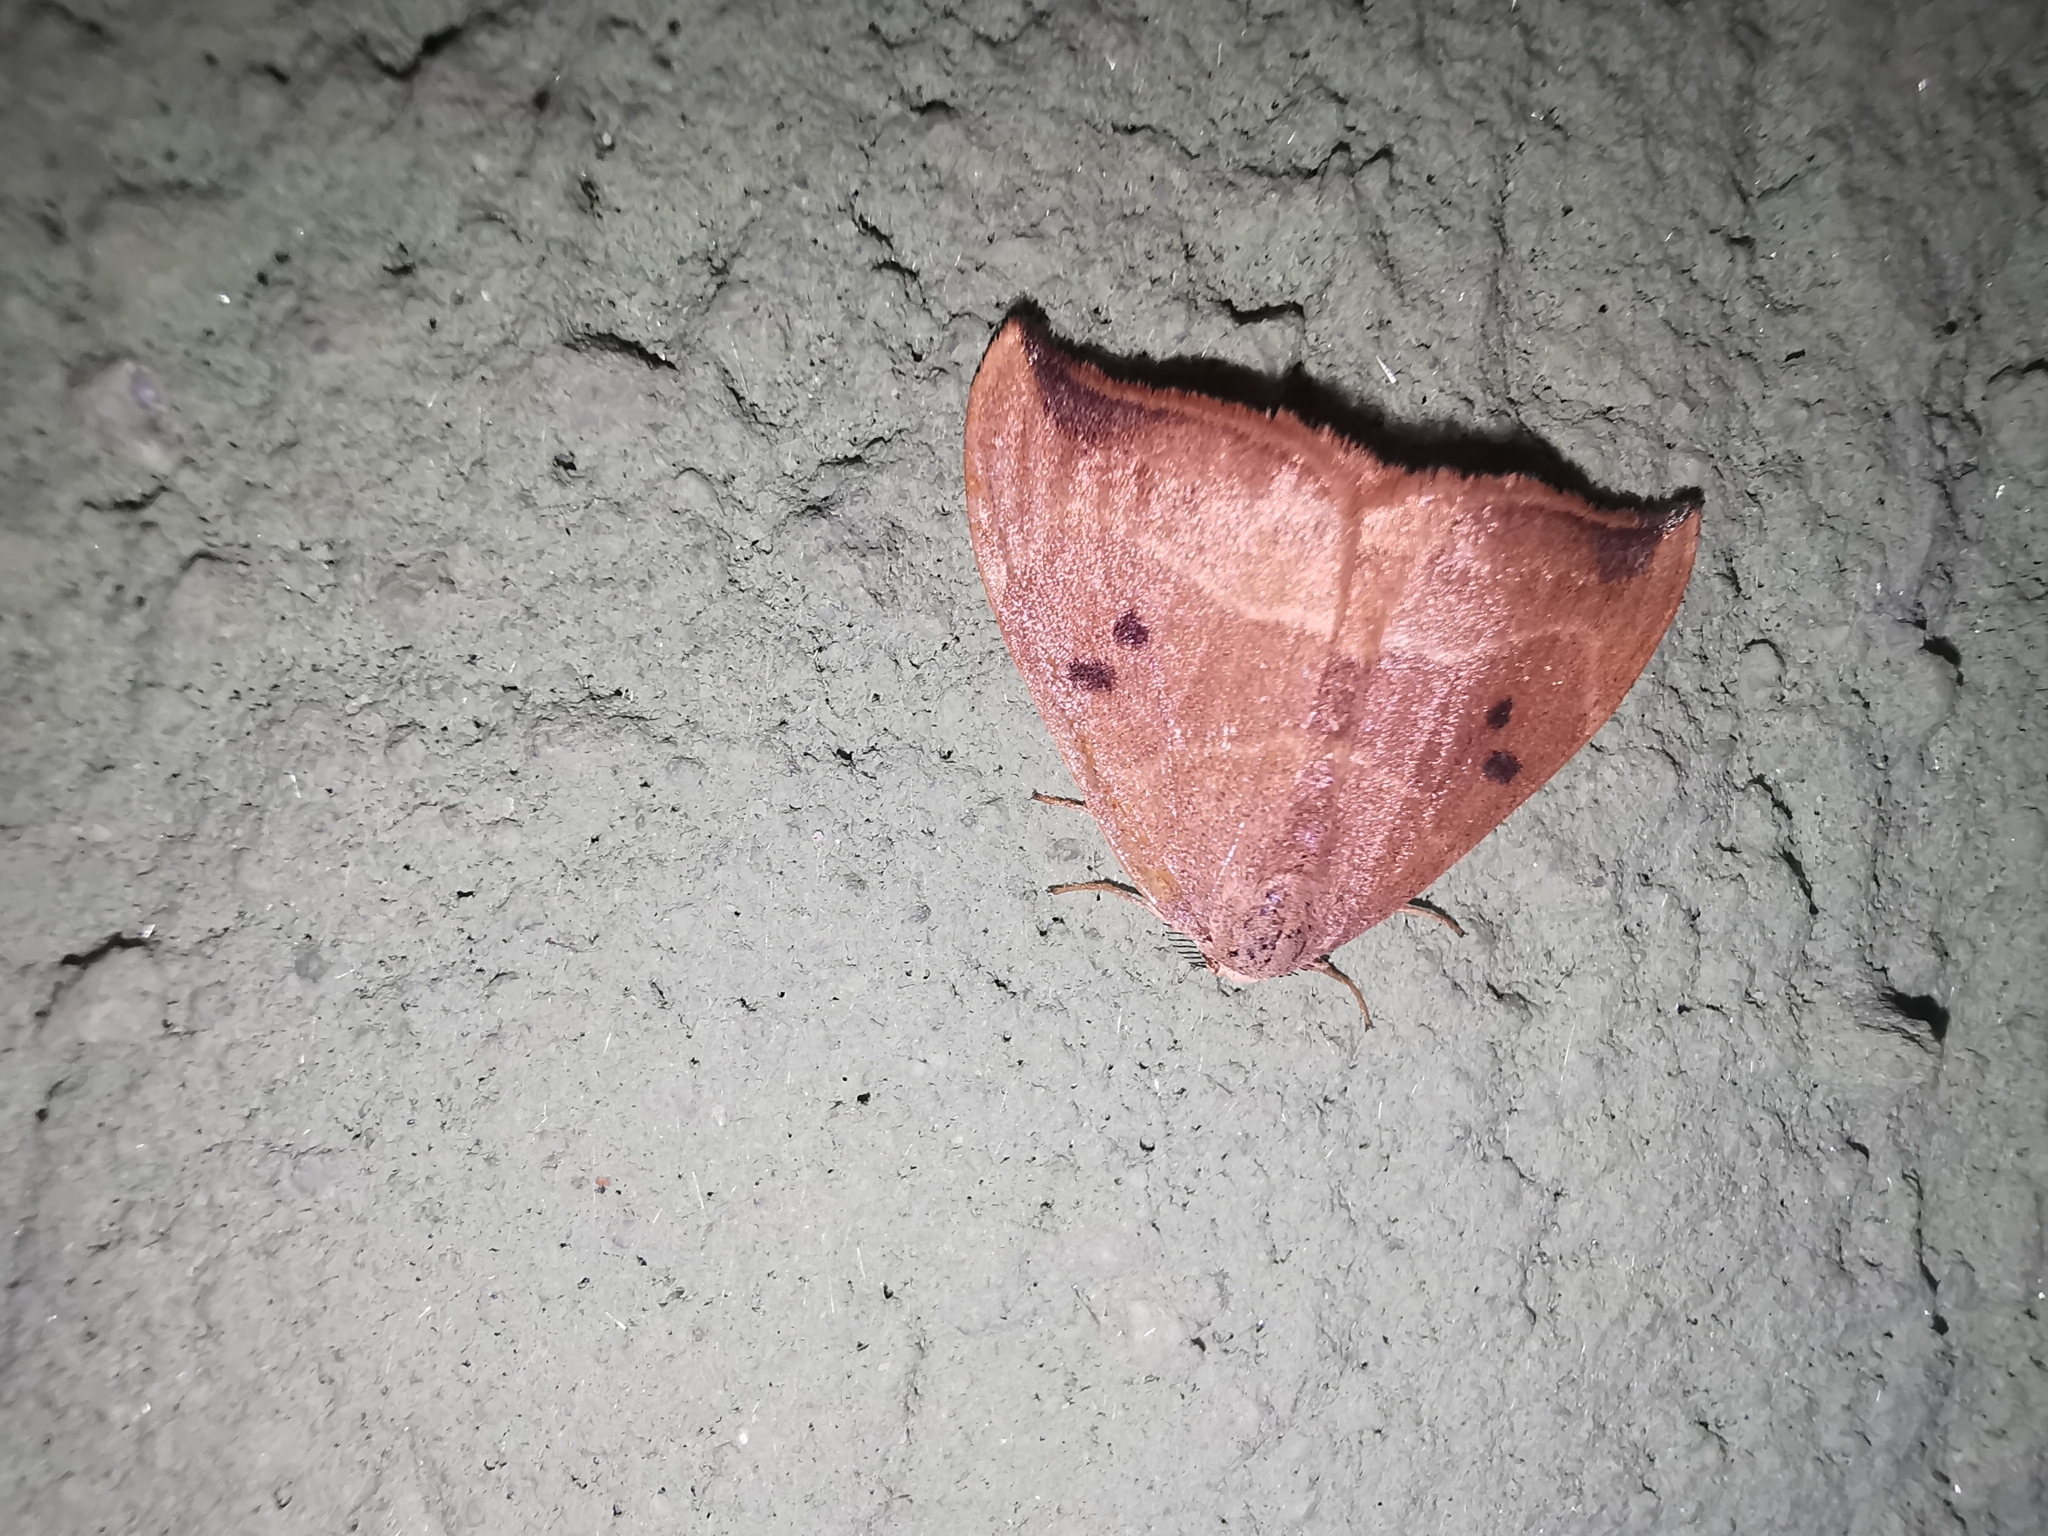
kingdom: Animalia
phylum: Arthropoda
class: Insecta
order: Lepidoptera
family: Drepanidae
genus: Watsonalla
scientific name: Watsonalla binaria
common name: Oak hook-tip
